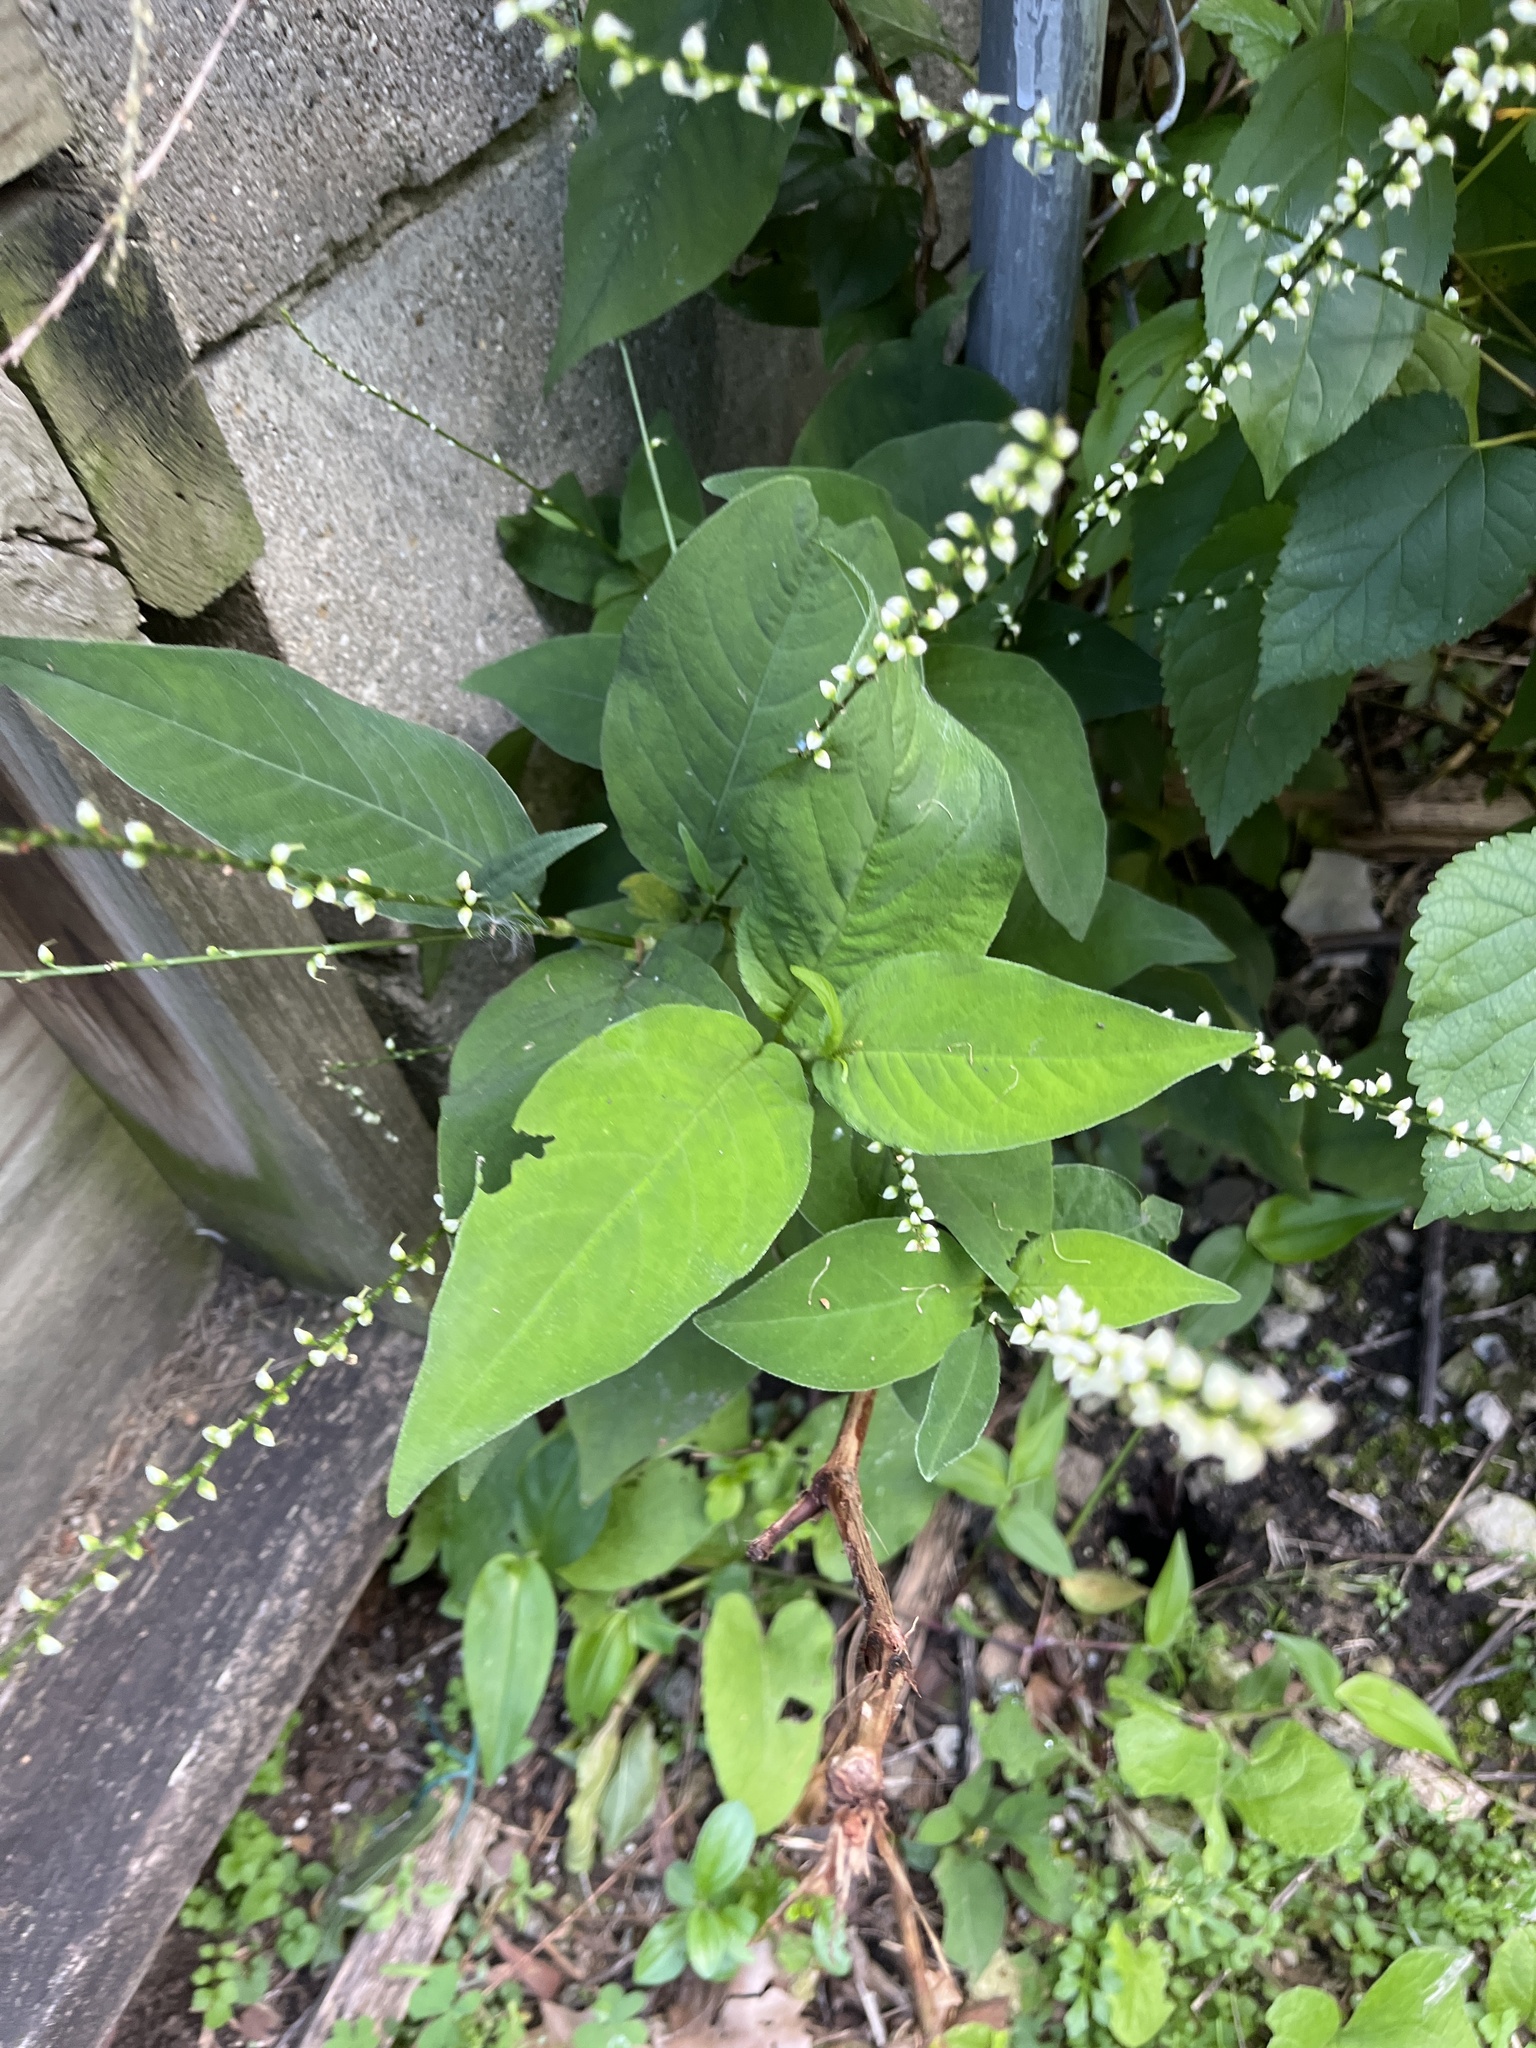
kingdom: Plantae
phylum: Tracheophyta
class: Magnoliopsida
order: Caryophyllales
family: Polygonaceae
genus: Persicaria
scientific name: Persicaria virginiana
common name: Jumpseed
